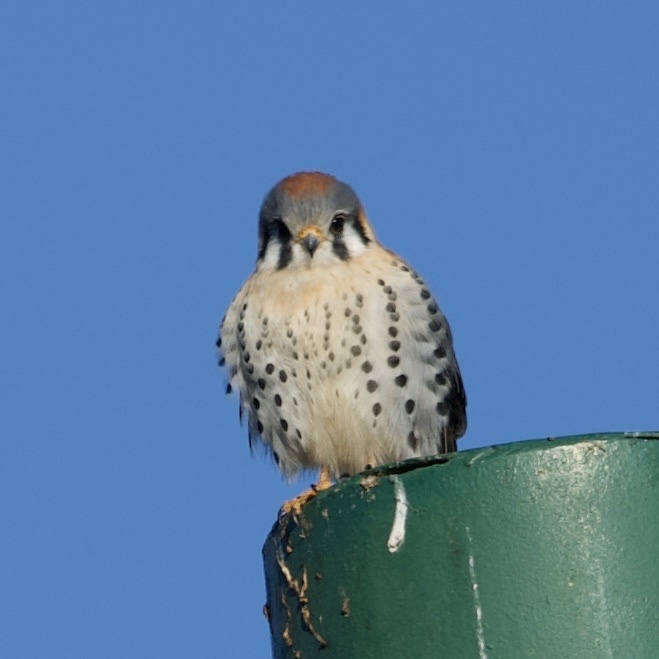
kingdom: Animalia
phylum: Chordata
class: Aves
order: Falconiformes
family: Falconidae
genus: Falco
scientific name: Falco sparverius
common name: American kestrel
